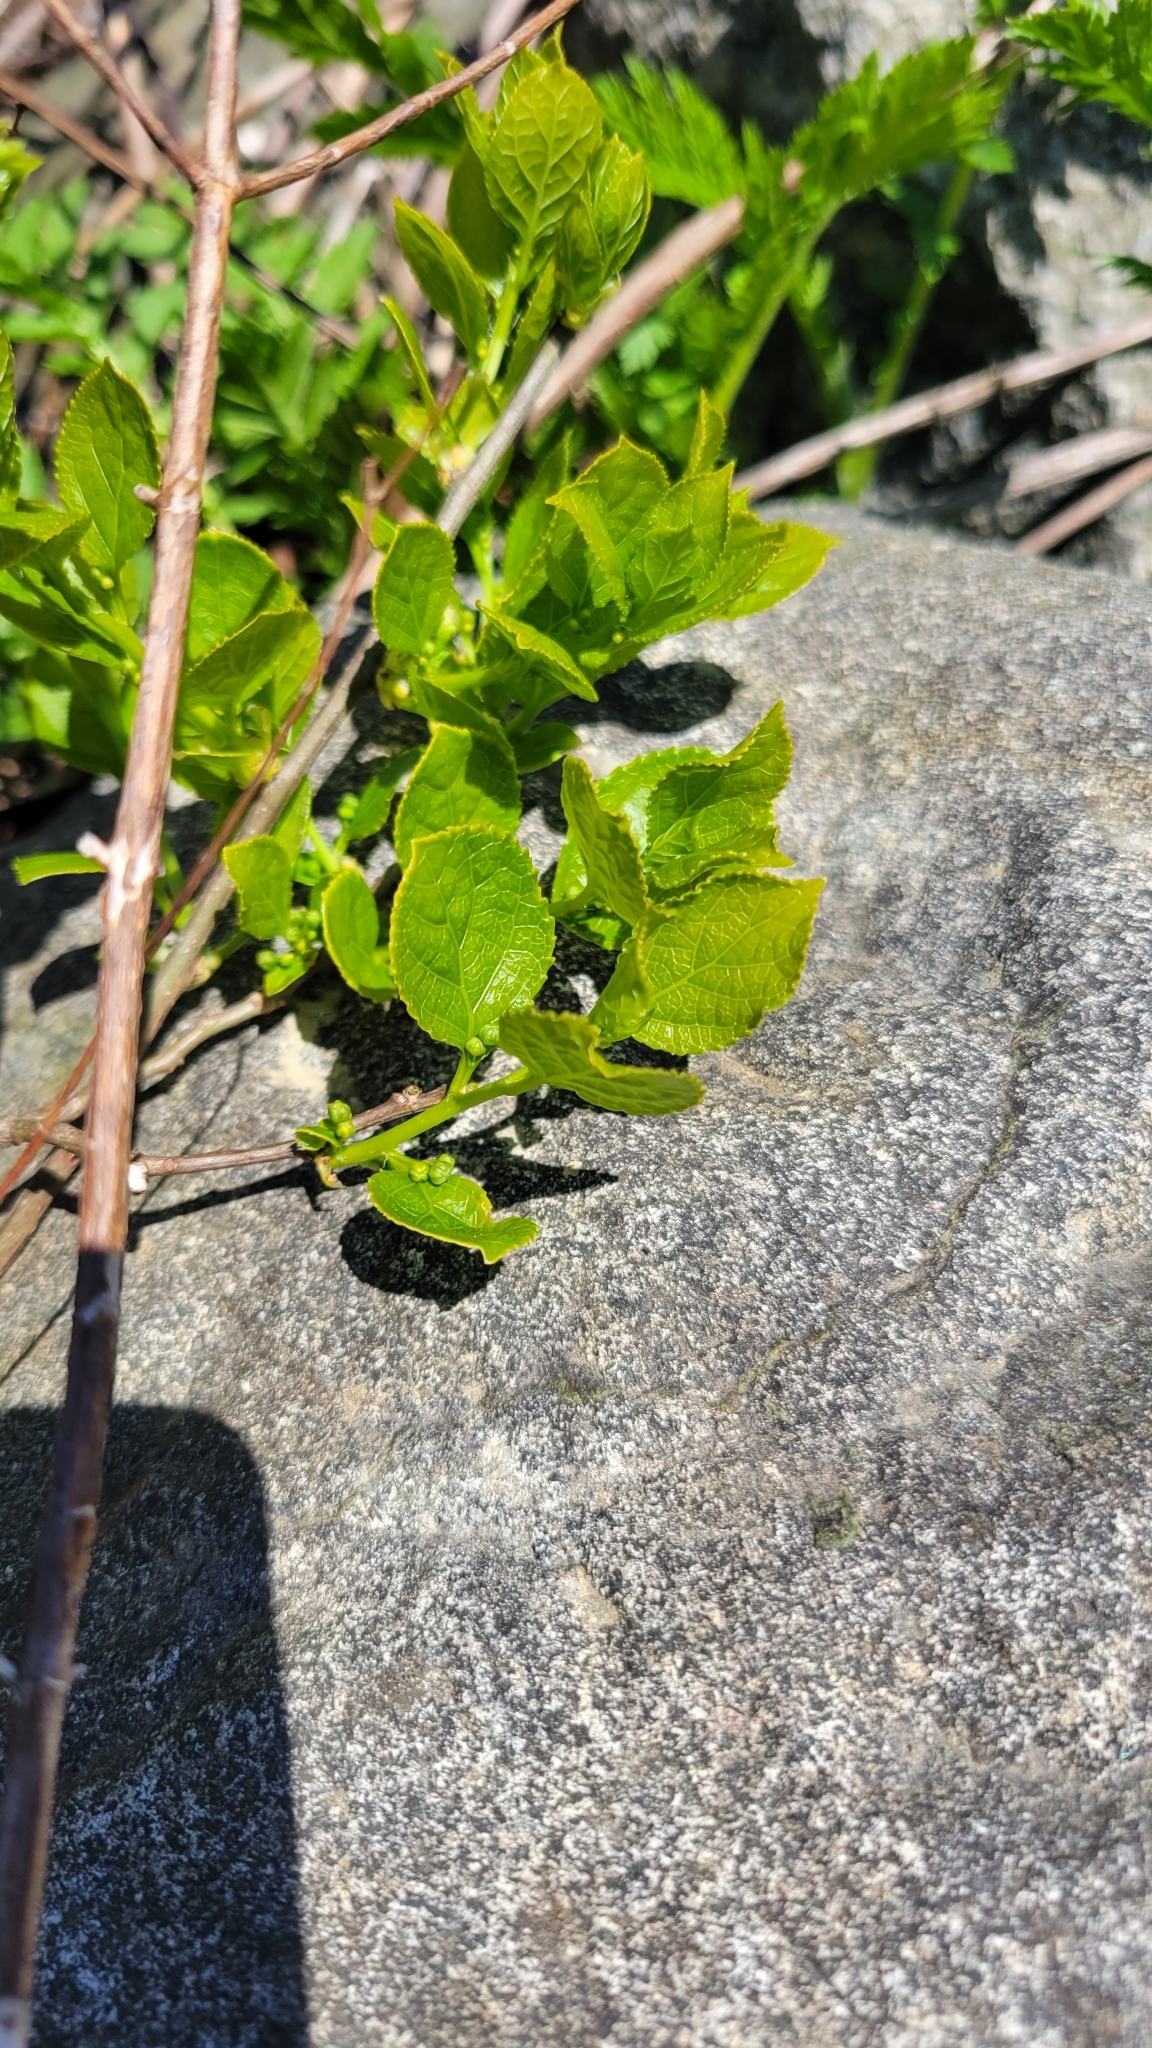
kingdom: Plantae
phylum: Tracheophyta
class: Magnoliopsida
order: Celastrales
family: Celastraceae
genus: Celastrus
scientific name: Celastrus orbiculatus
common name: Oriental bittersweet
